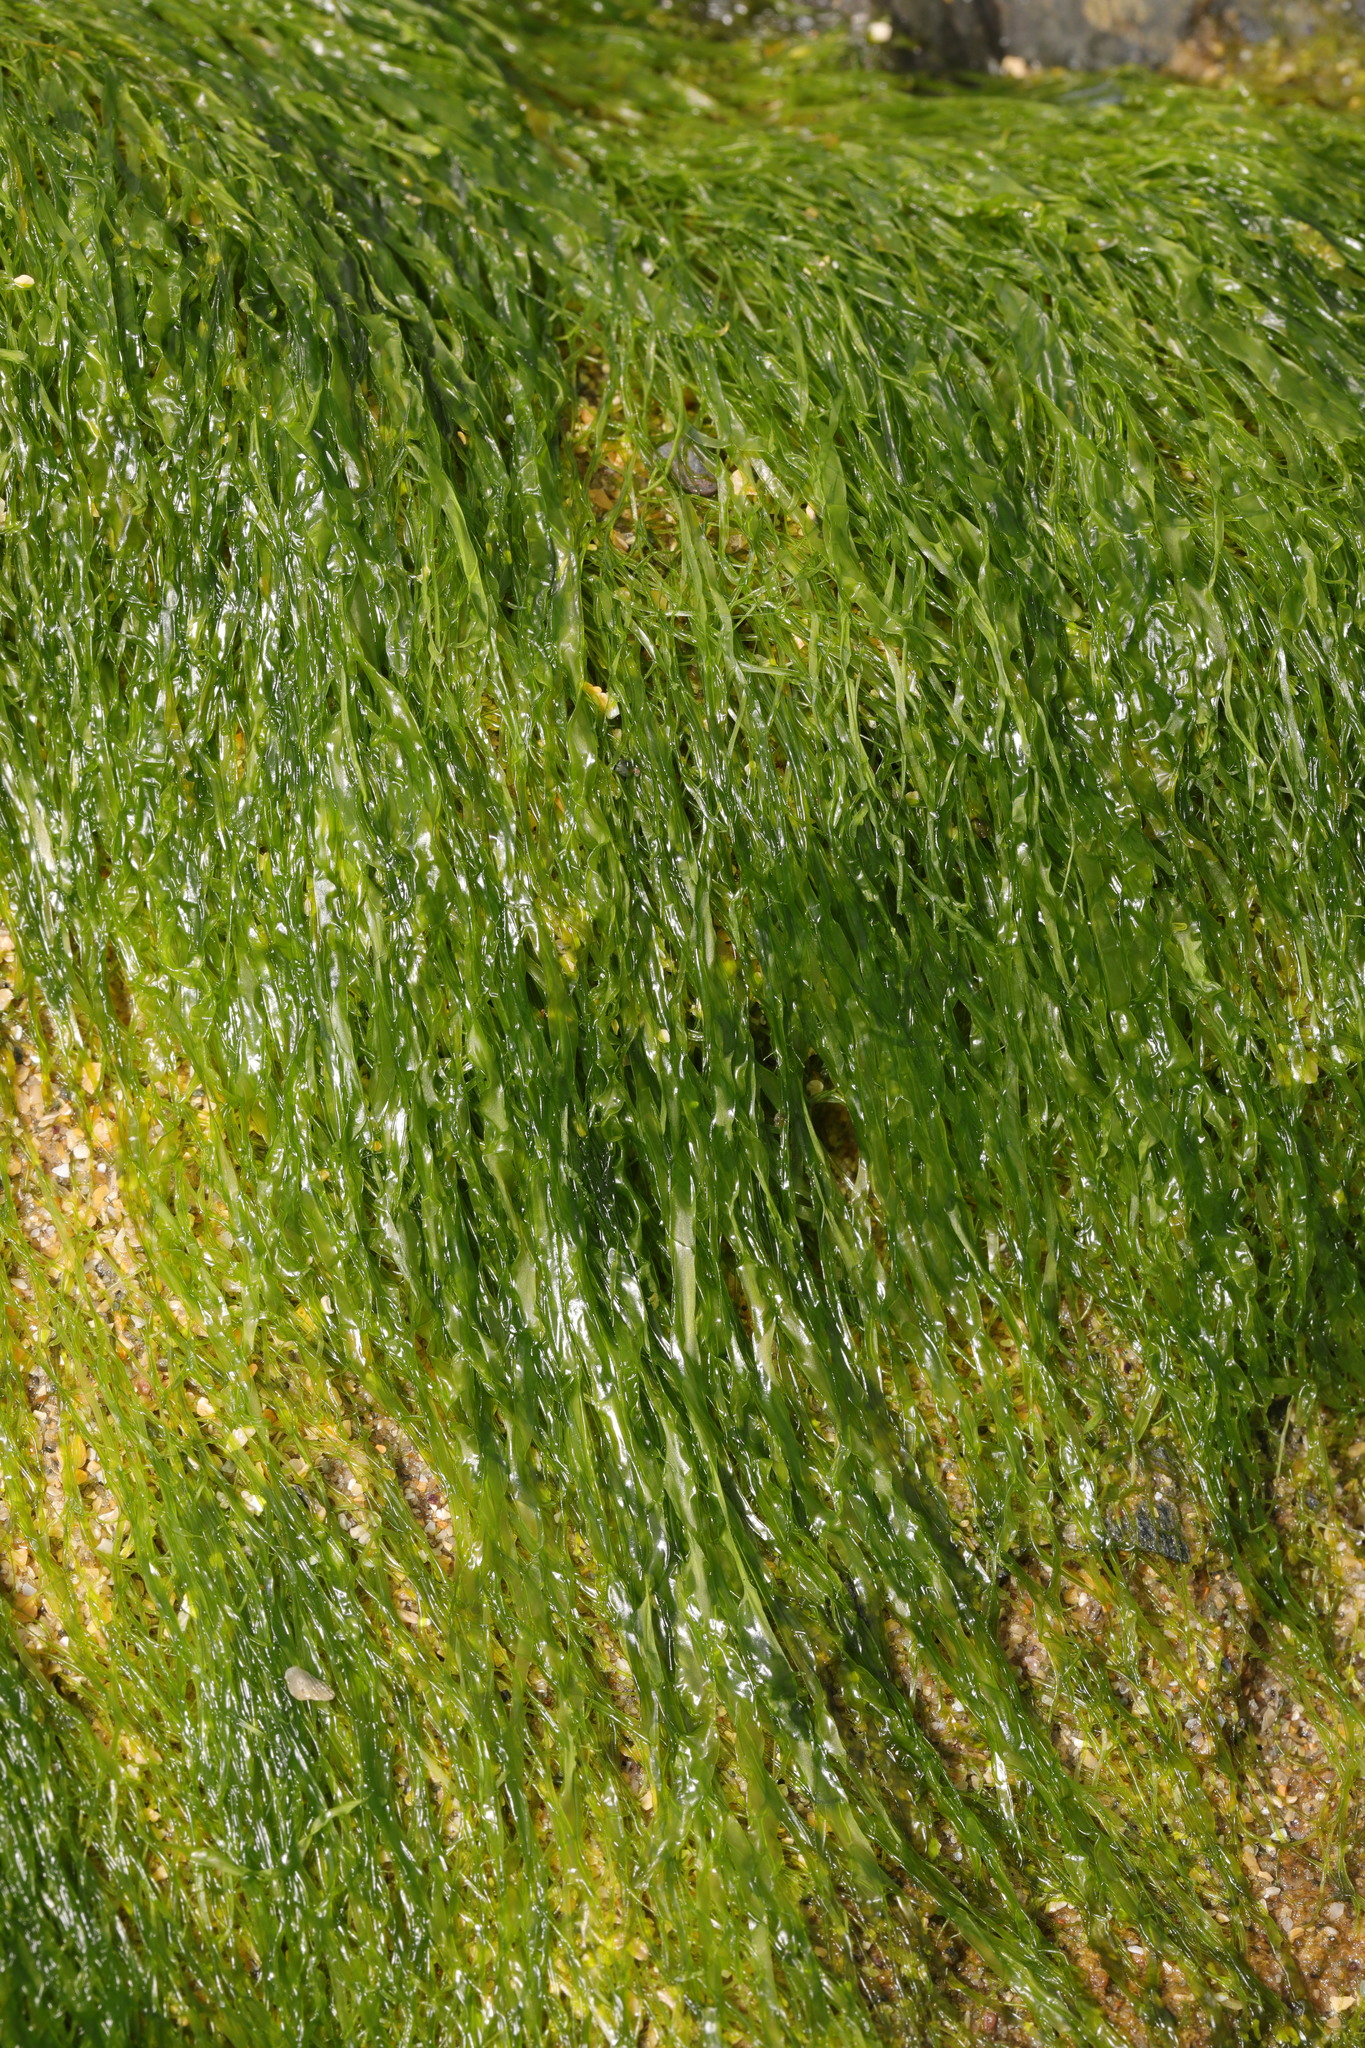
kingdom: Plantae
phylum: Chlorophyta
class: Ulvophyceae
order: Ulvales
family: Ulvaceae
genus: Ulva
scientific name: Ulva intestinalis
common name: Gut weed
